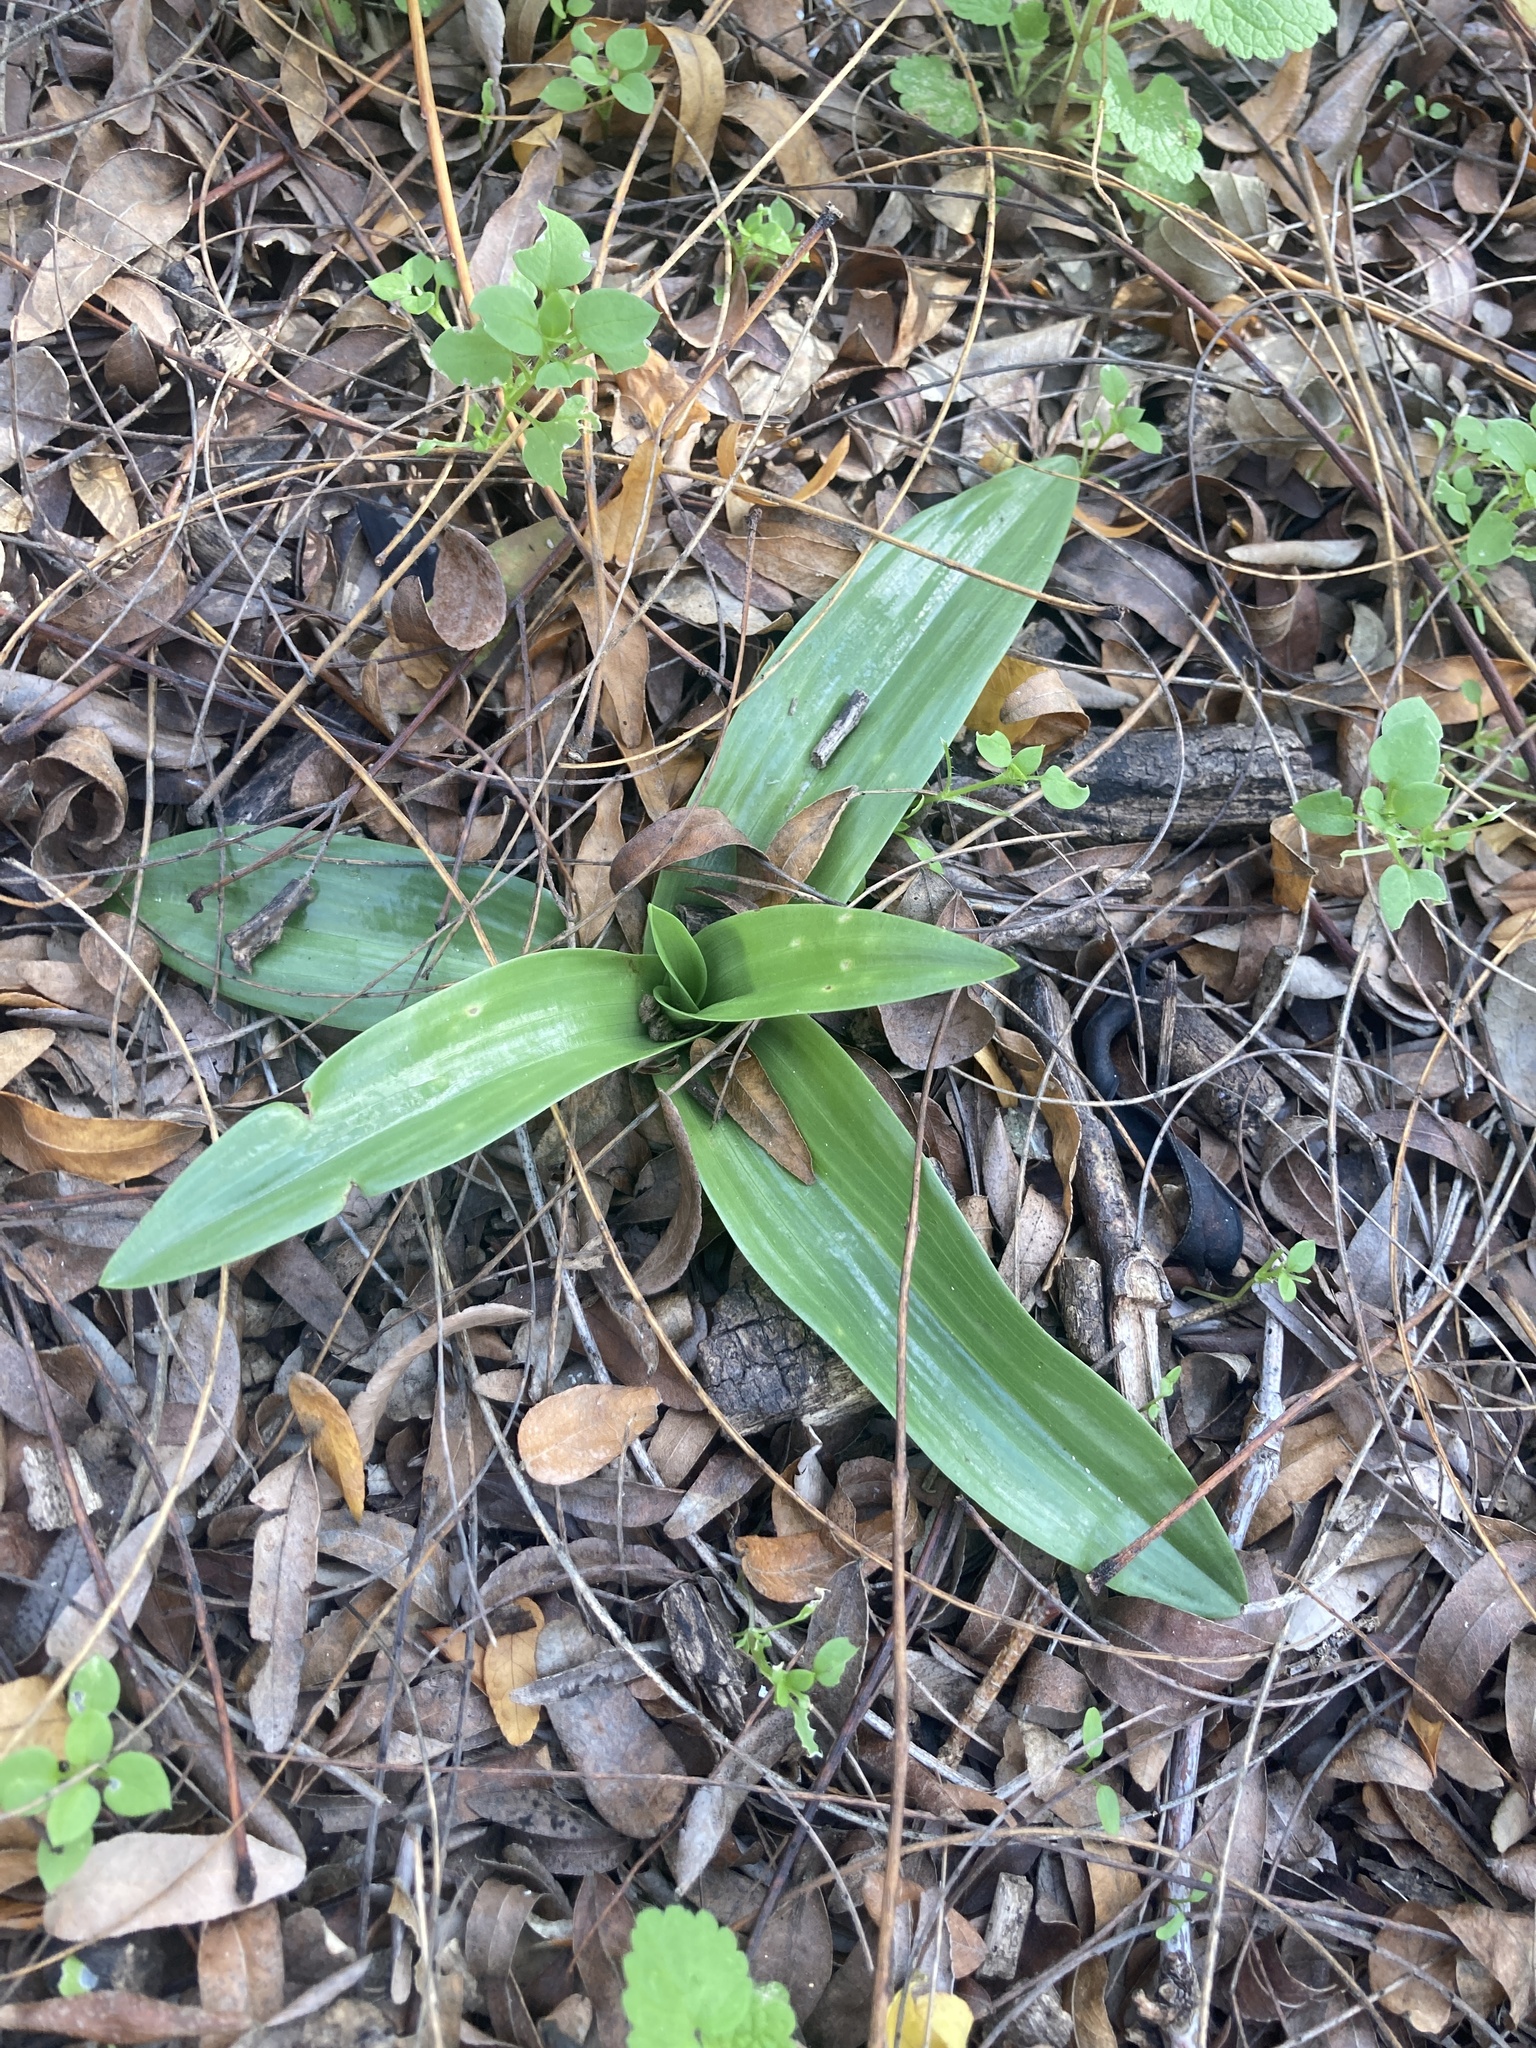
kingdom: Plantae
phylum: Tracheophyta
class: Liliopsida
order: Asparagales
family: Orchidaceae
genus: Chloraea
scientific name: Chloraea membranacea
